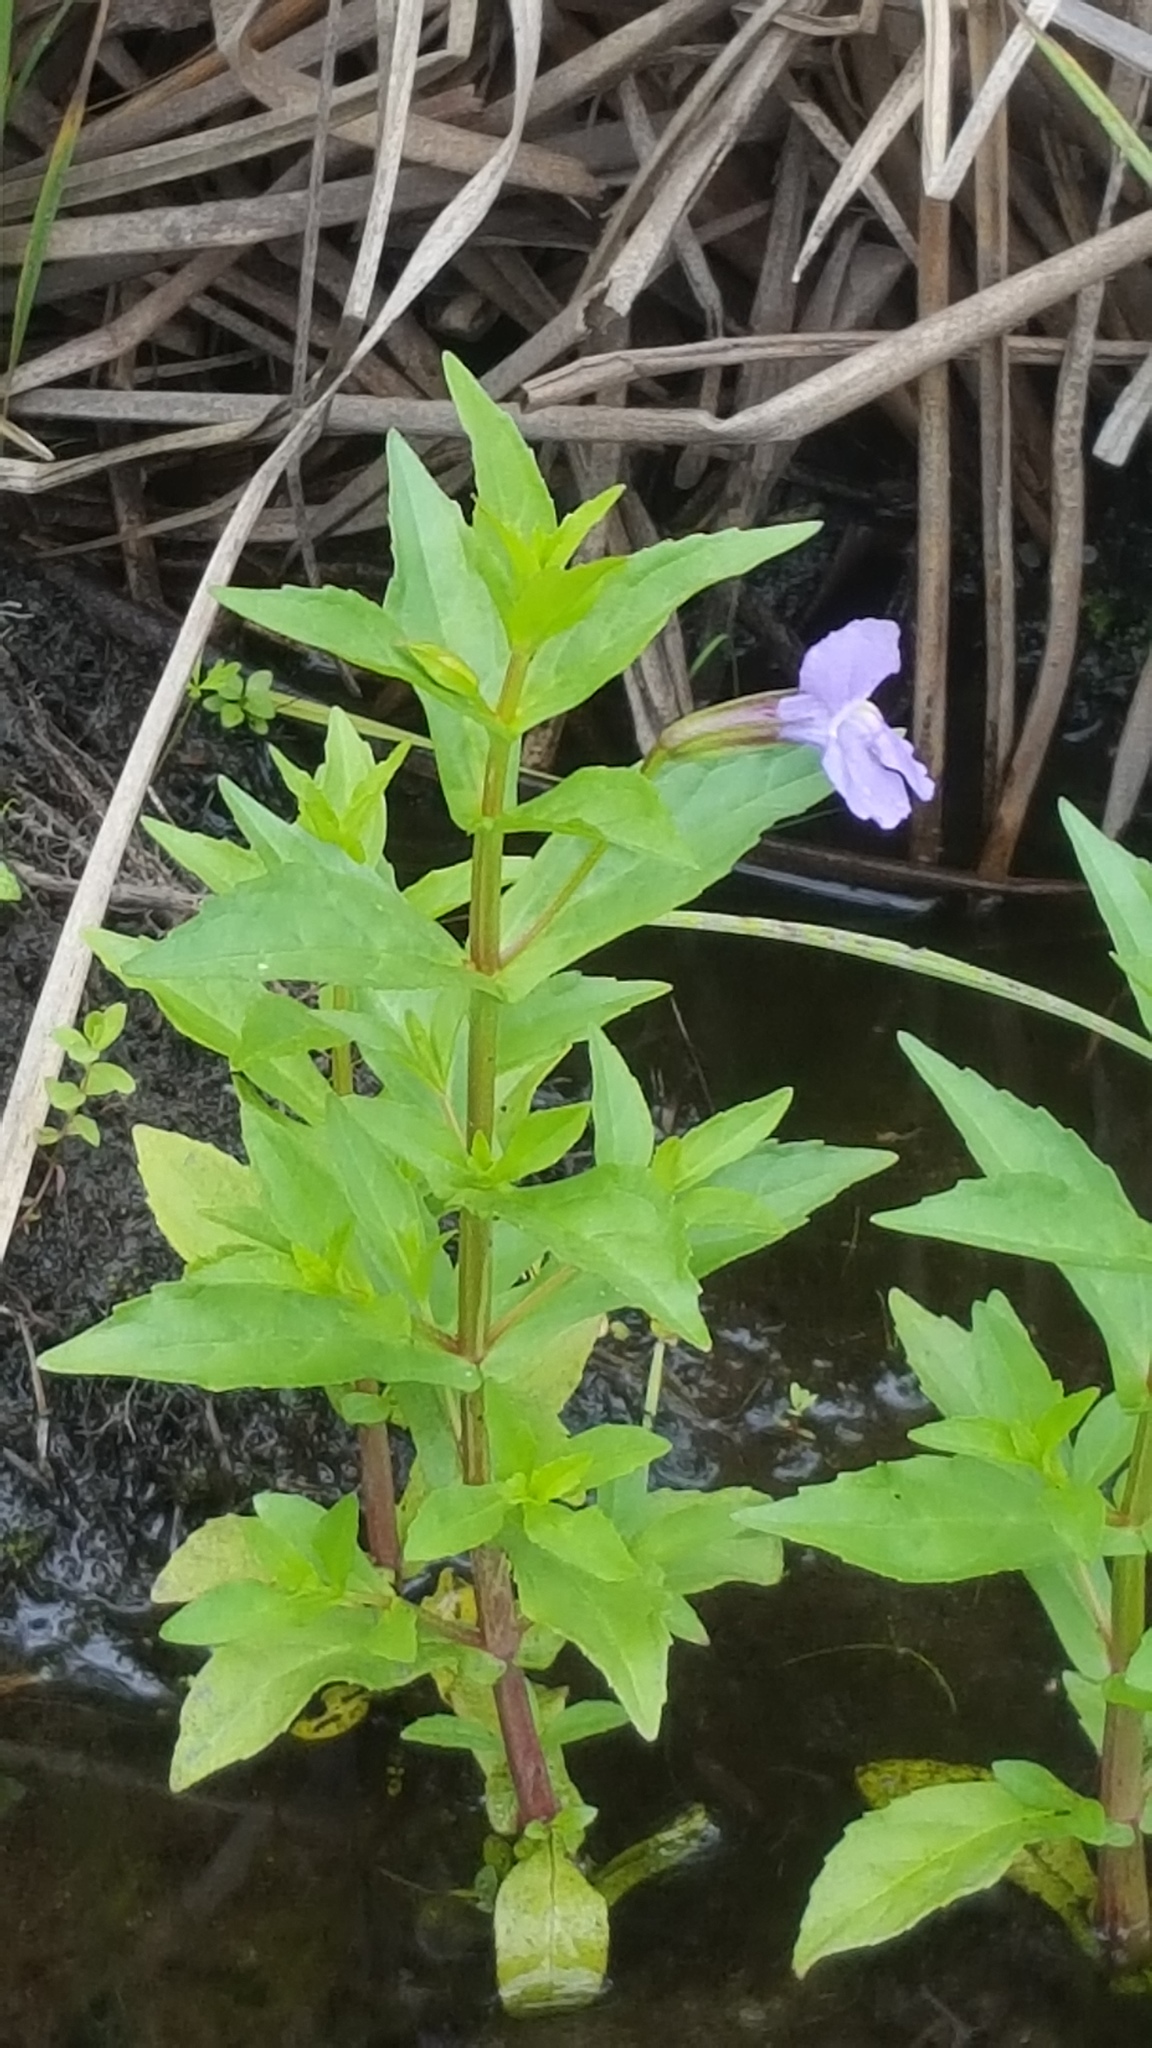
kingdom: Plantae
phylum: Tracheophyta
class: Magnoliopsida
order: Lamiales
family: Phrymaceae
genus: Mimulus
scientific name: Mimulus ringens
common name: Allegheny monkeyflower
